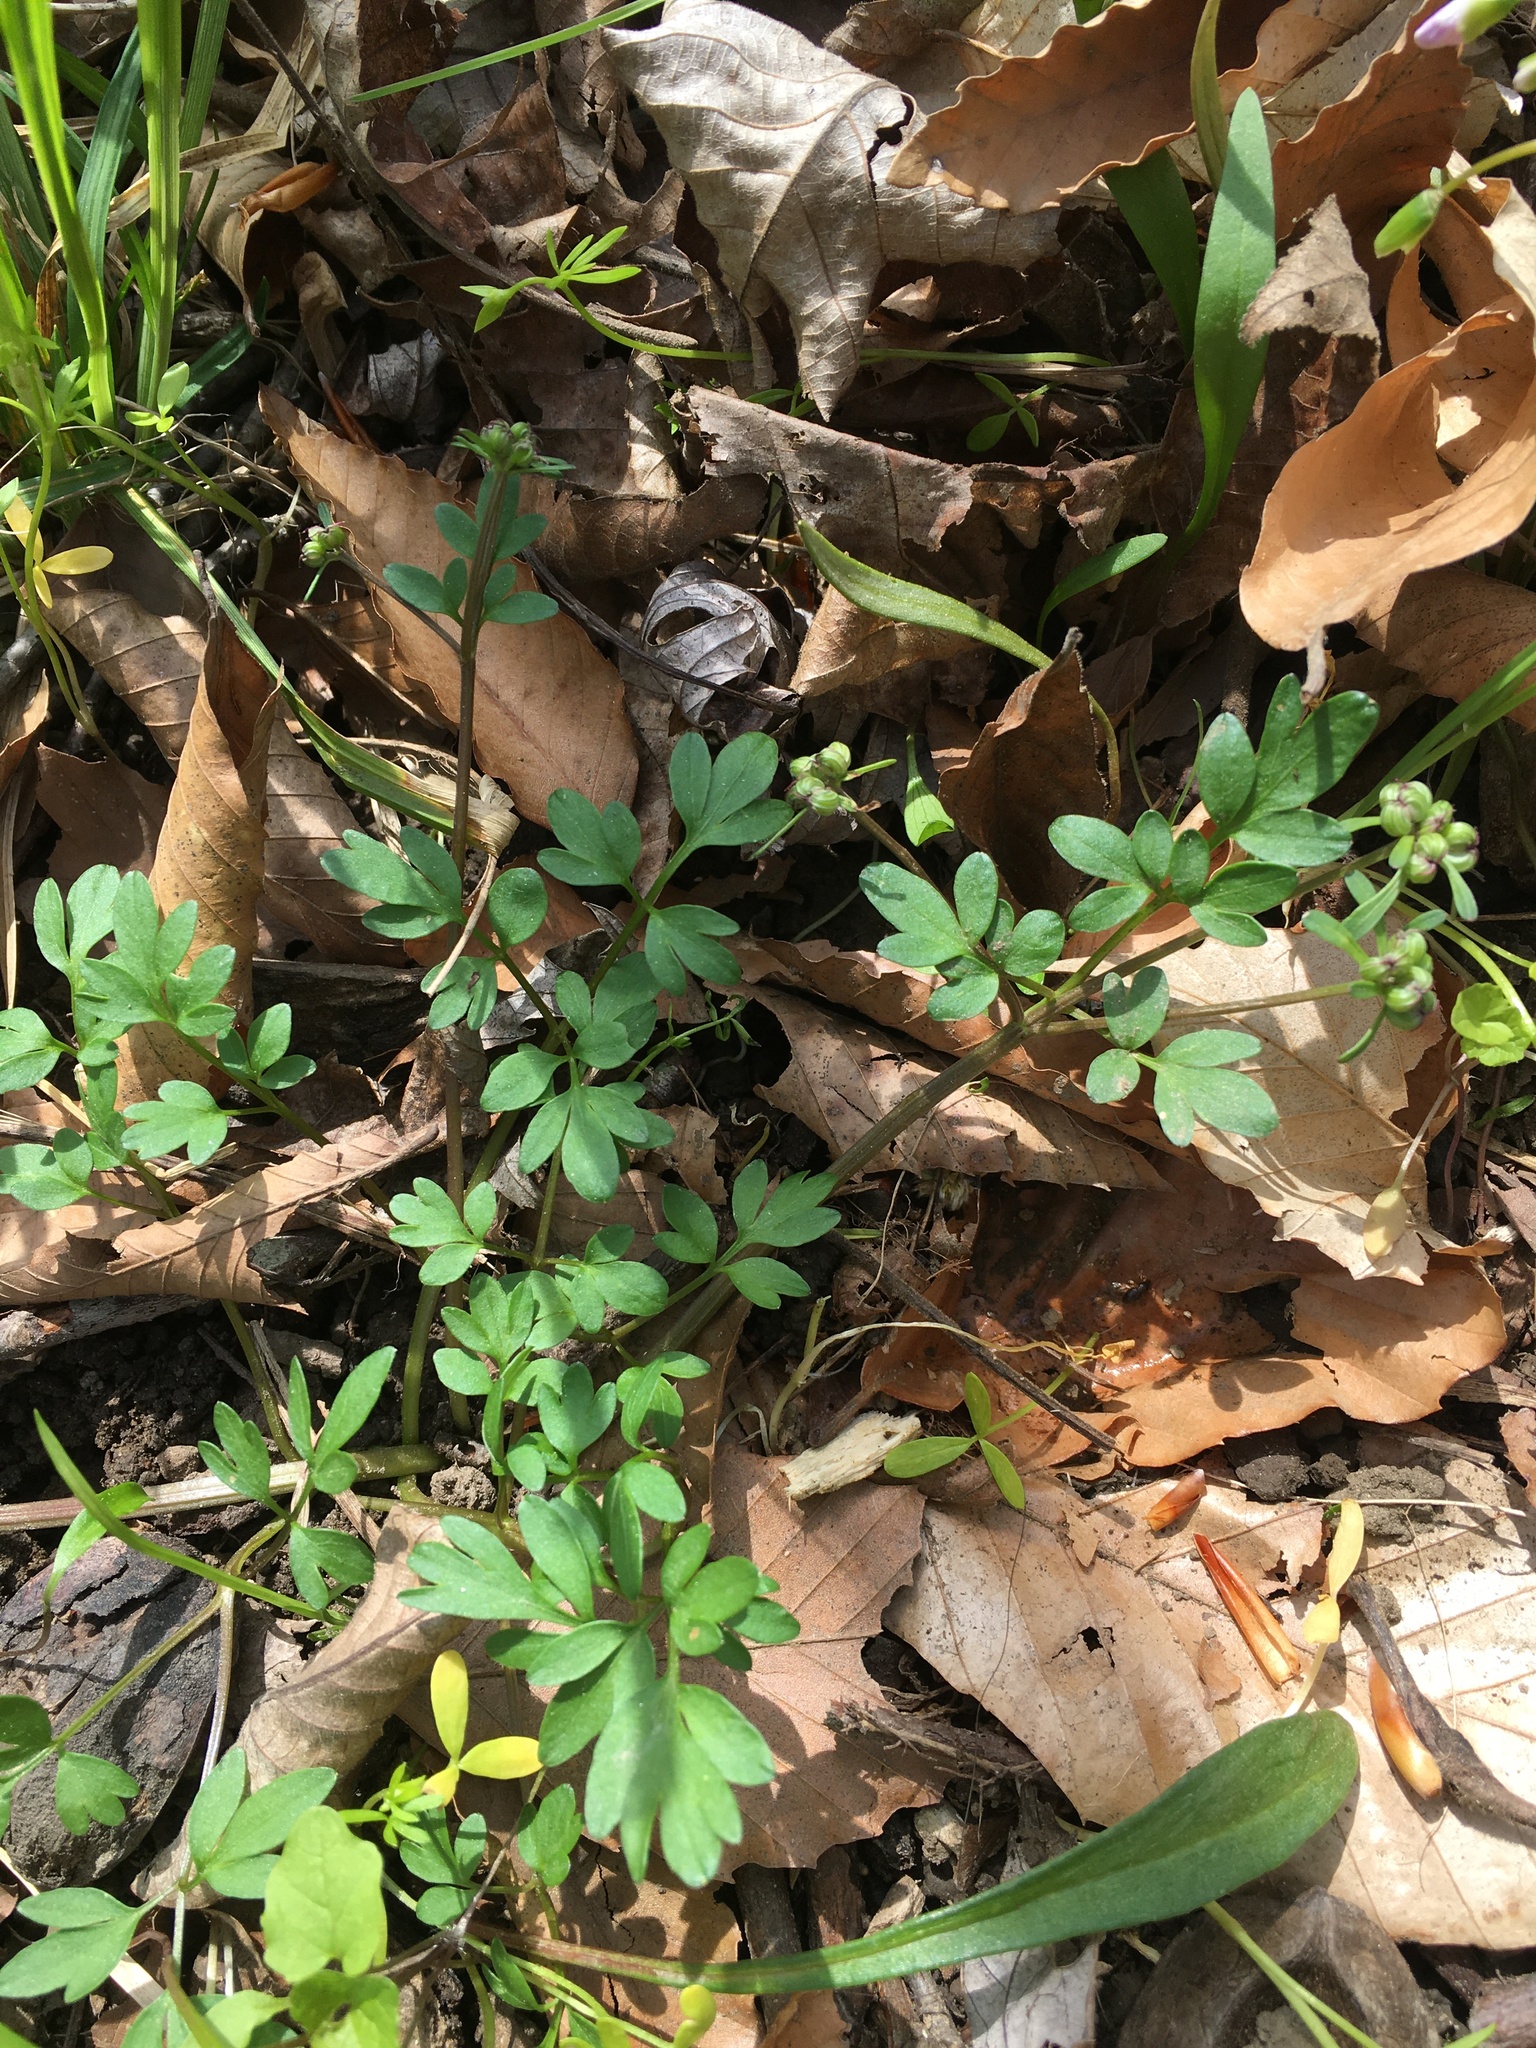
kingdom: Plantae
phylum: Tracheophyta
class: Magnoliopsida
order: Apiales
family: Apiaceae
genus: Erigenia
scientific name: Erigenia bulbosa
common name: Pepper-and-salt
